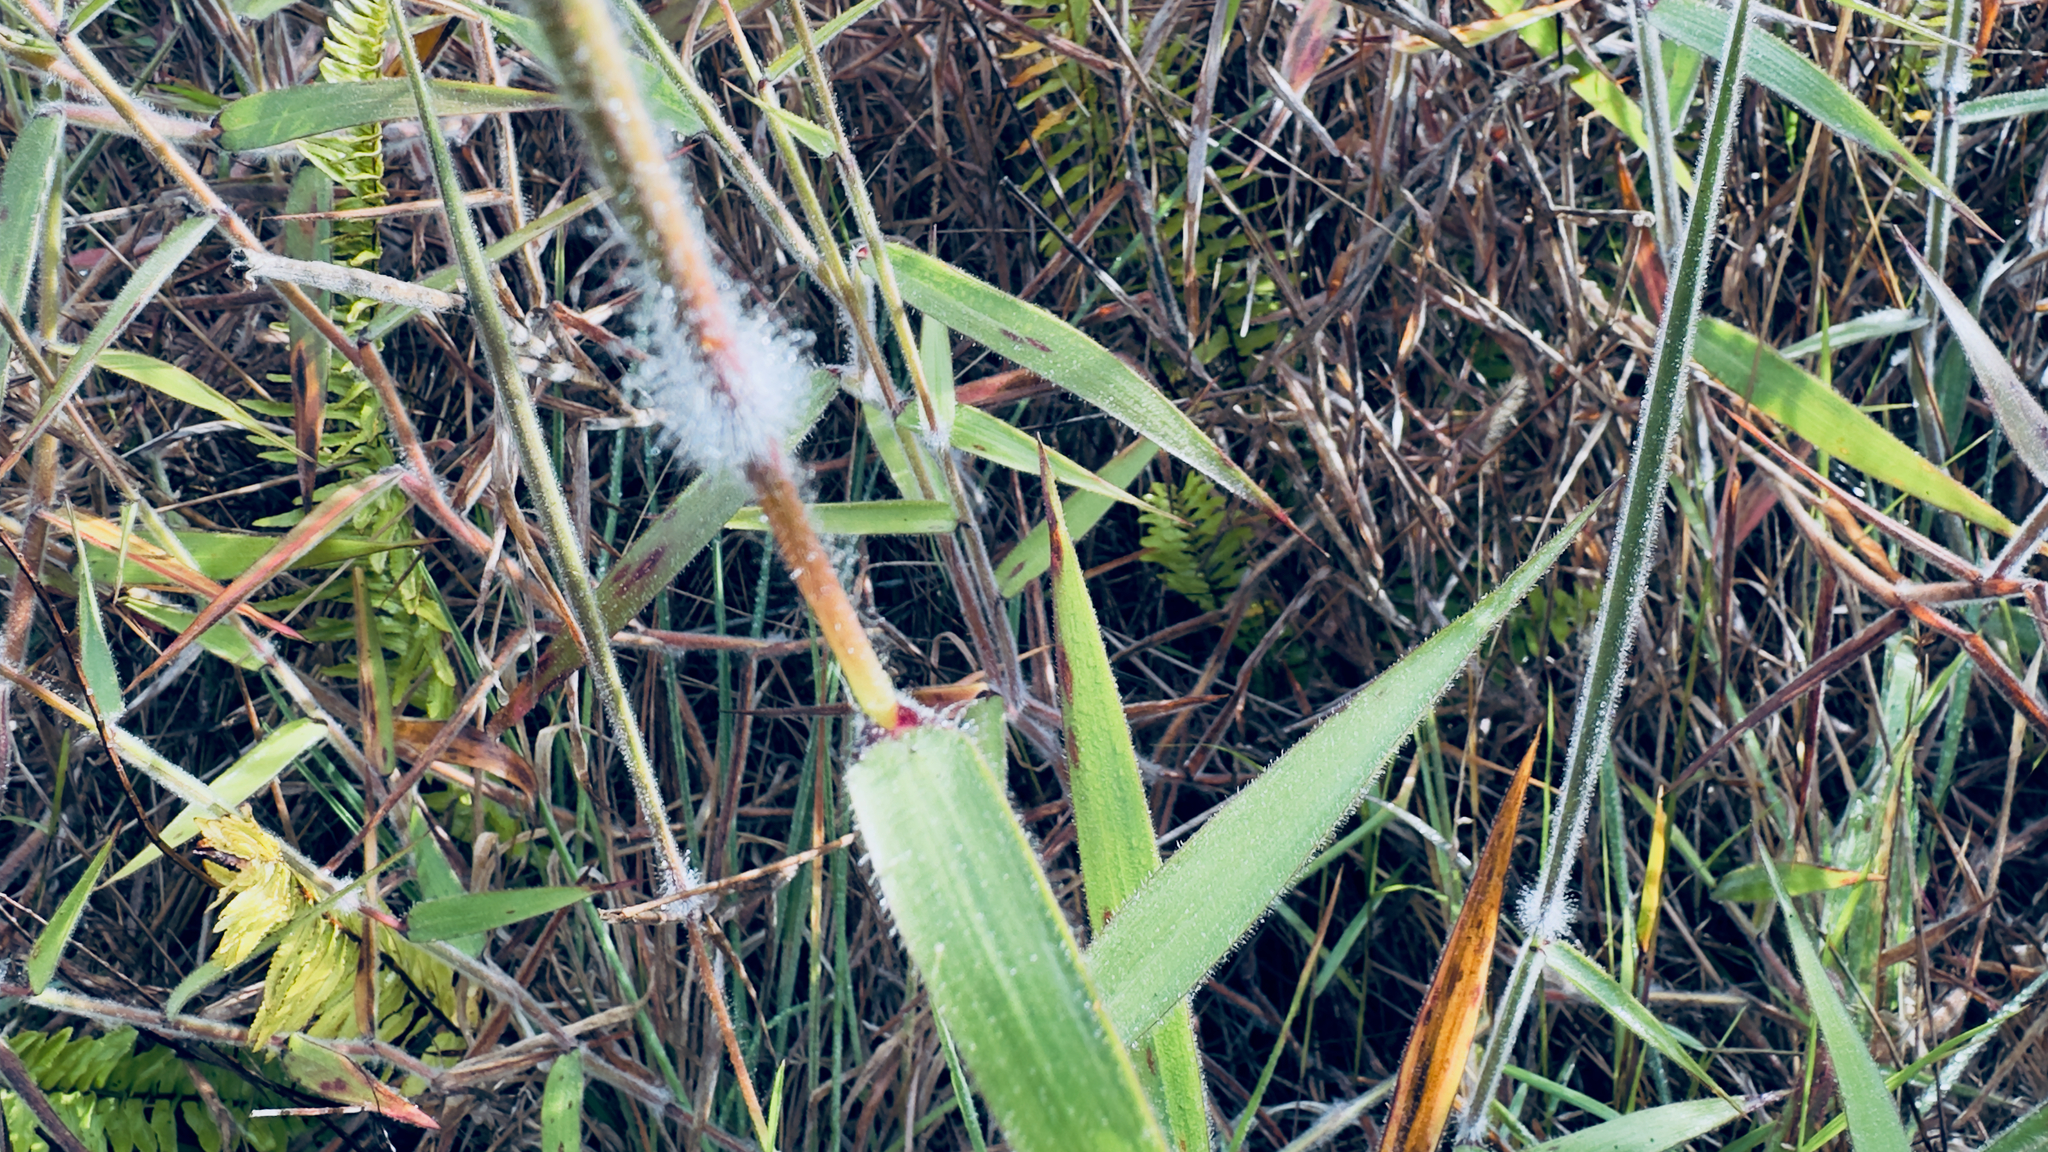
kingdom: Plantae
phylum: Tracheophyta
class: Liliopsida
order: Poales
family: Poaceae
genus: Melinis
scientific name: Melinis minutiflora
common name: Molassesgrass
